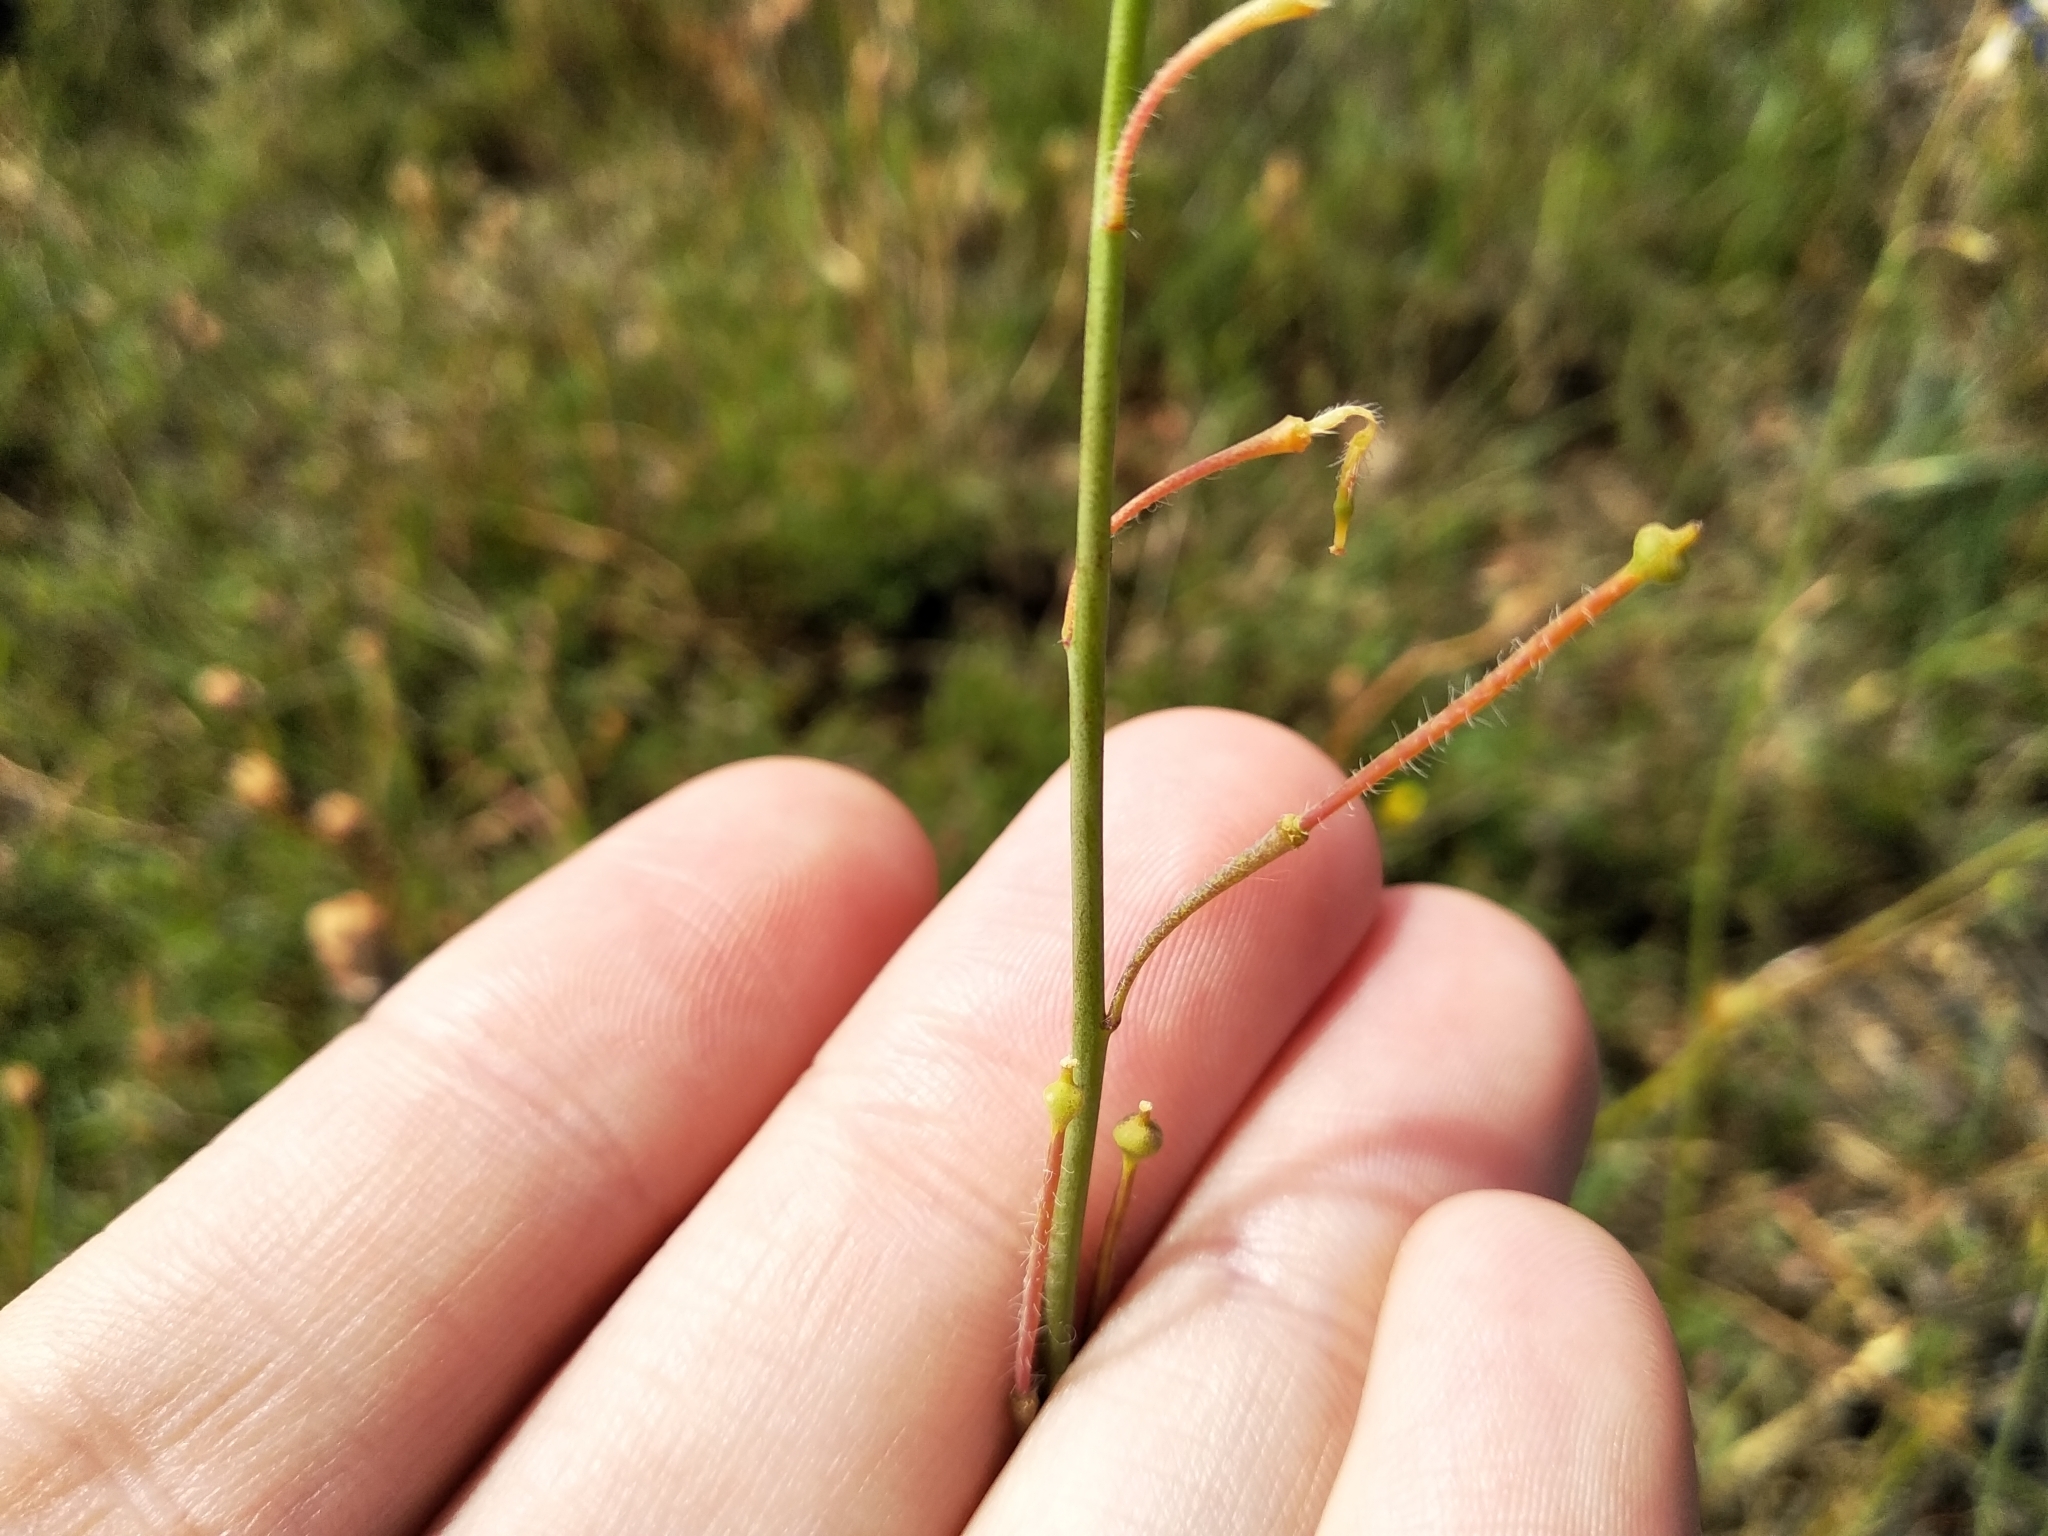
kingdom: Plantae
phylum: Tracheophyta
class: Magnoliopsida
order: Brassicales
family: Brassicaceae
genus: Heliophila
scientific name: Heliophila africana
